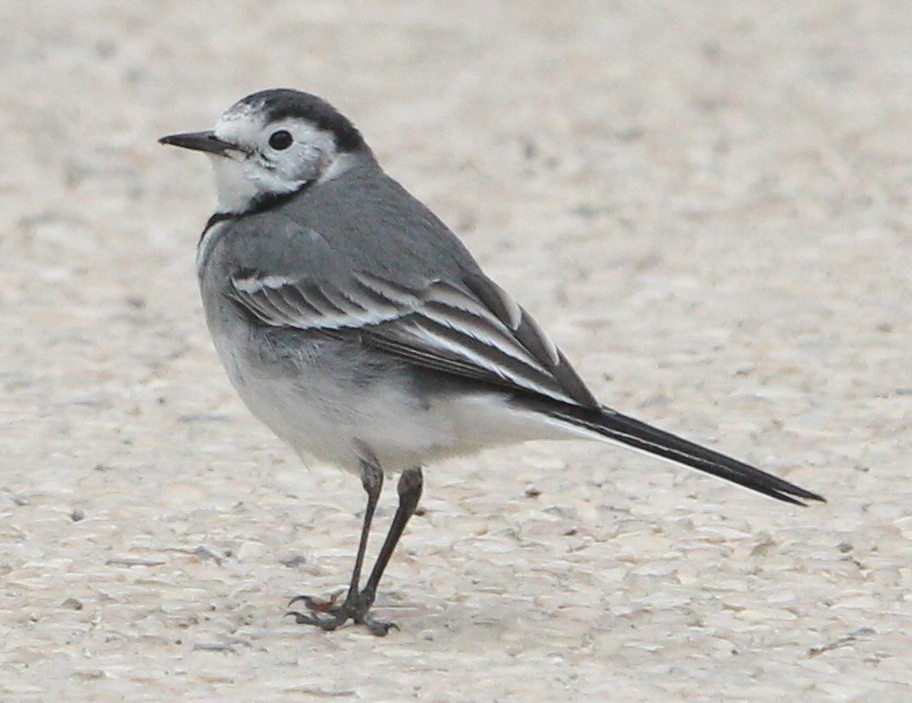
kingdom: Animalia
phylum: Chordata
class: Aves
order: Passeriformes
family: Motacillidae
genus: Motacilla
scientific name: Motacilla alba
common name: White wagtail
